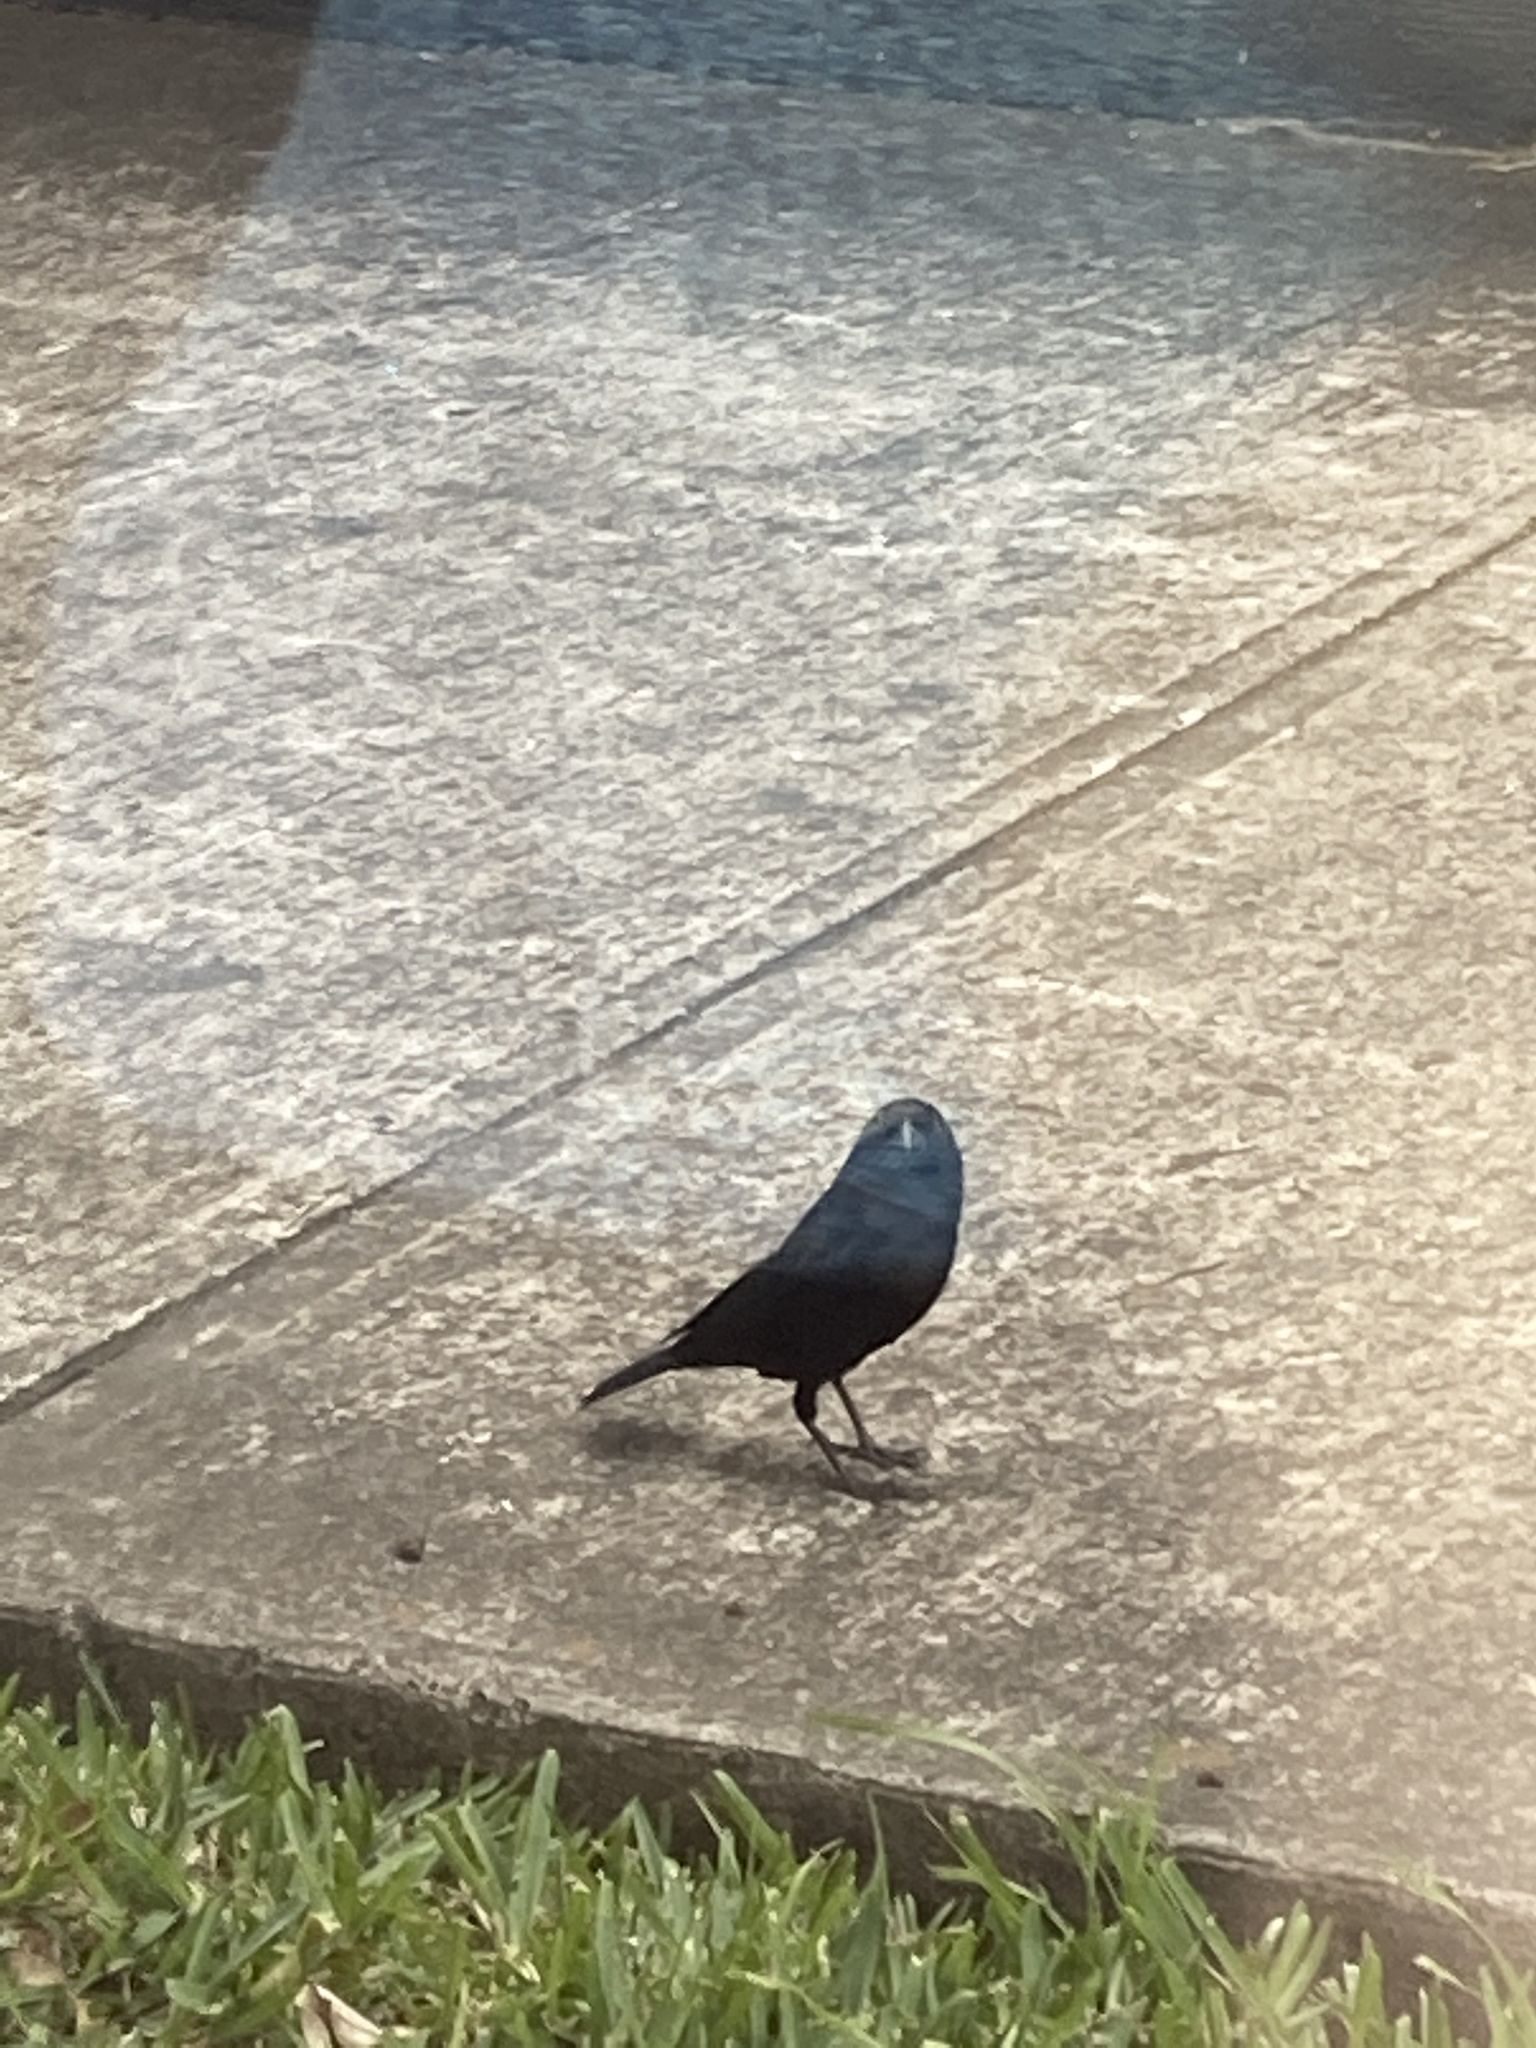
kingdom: Animalia
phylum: Chordata
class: Aves
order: Passeriformes
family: Icteridae
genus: Molothrus
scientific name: Molothrus aeneus
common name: Bronzed cowbird
